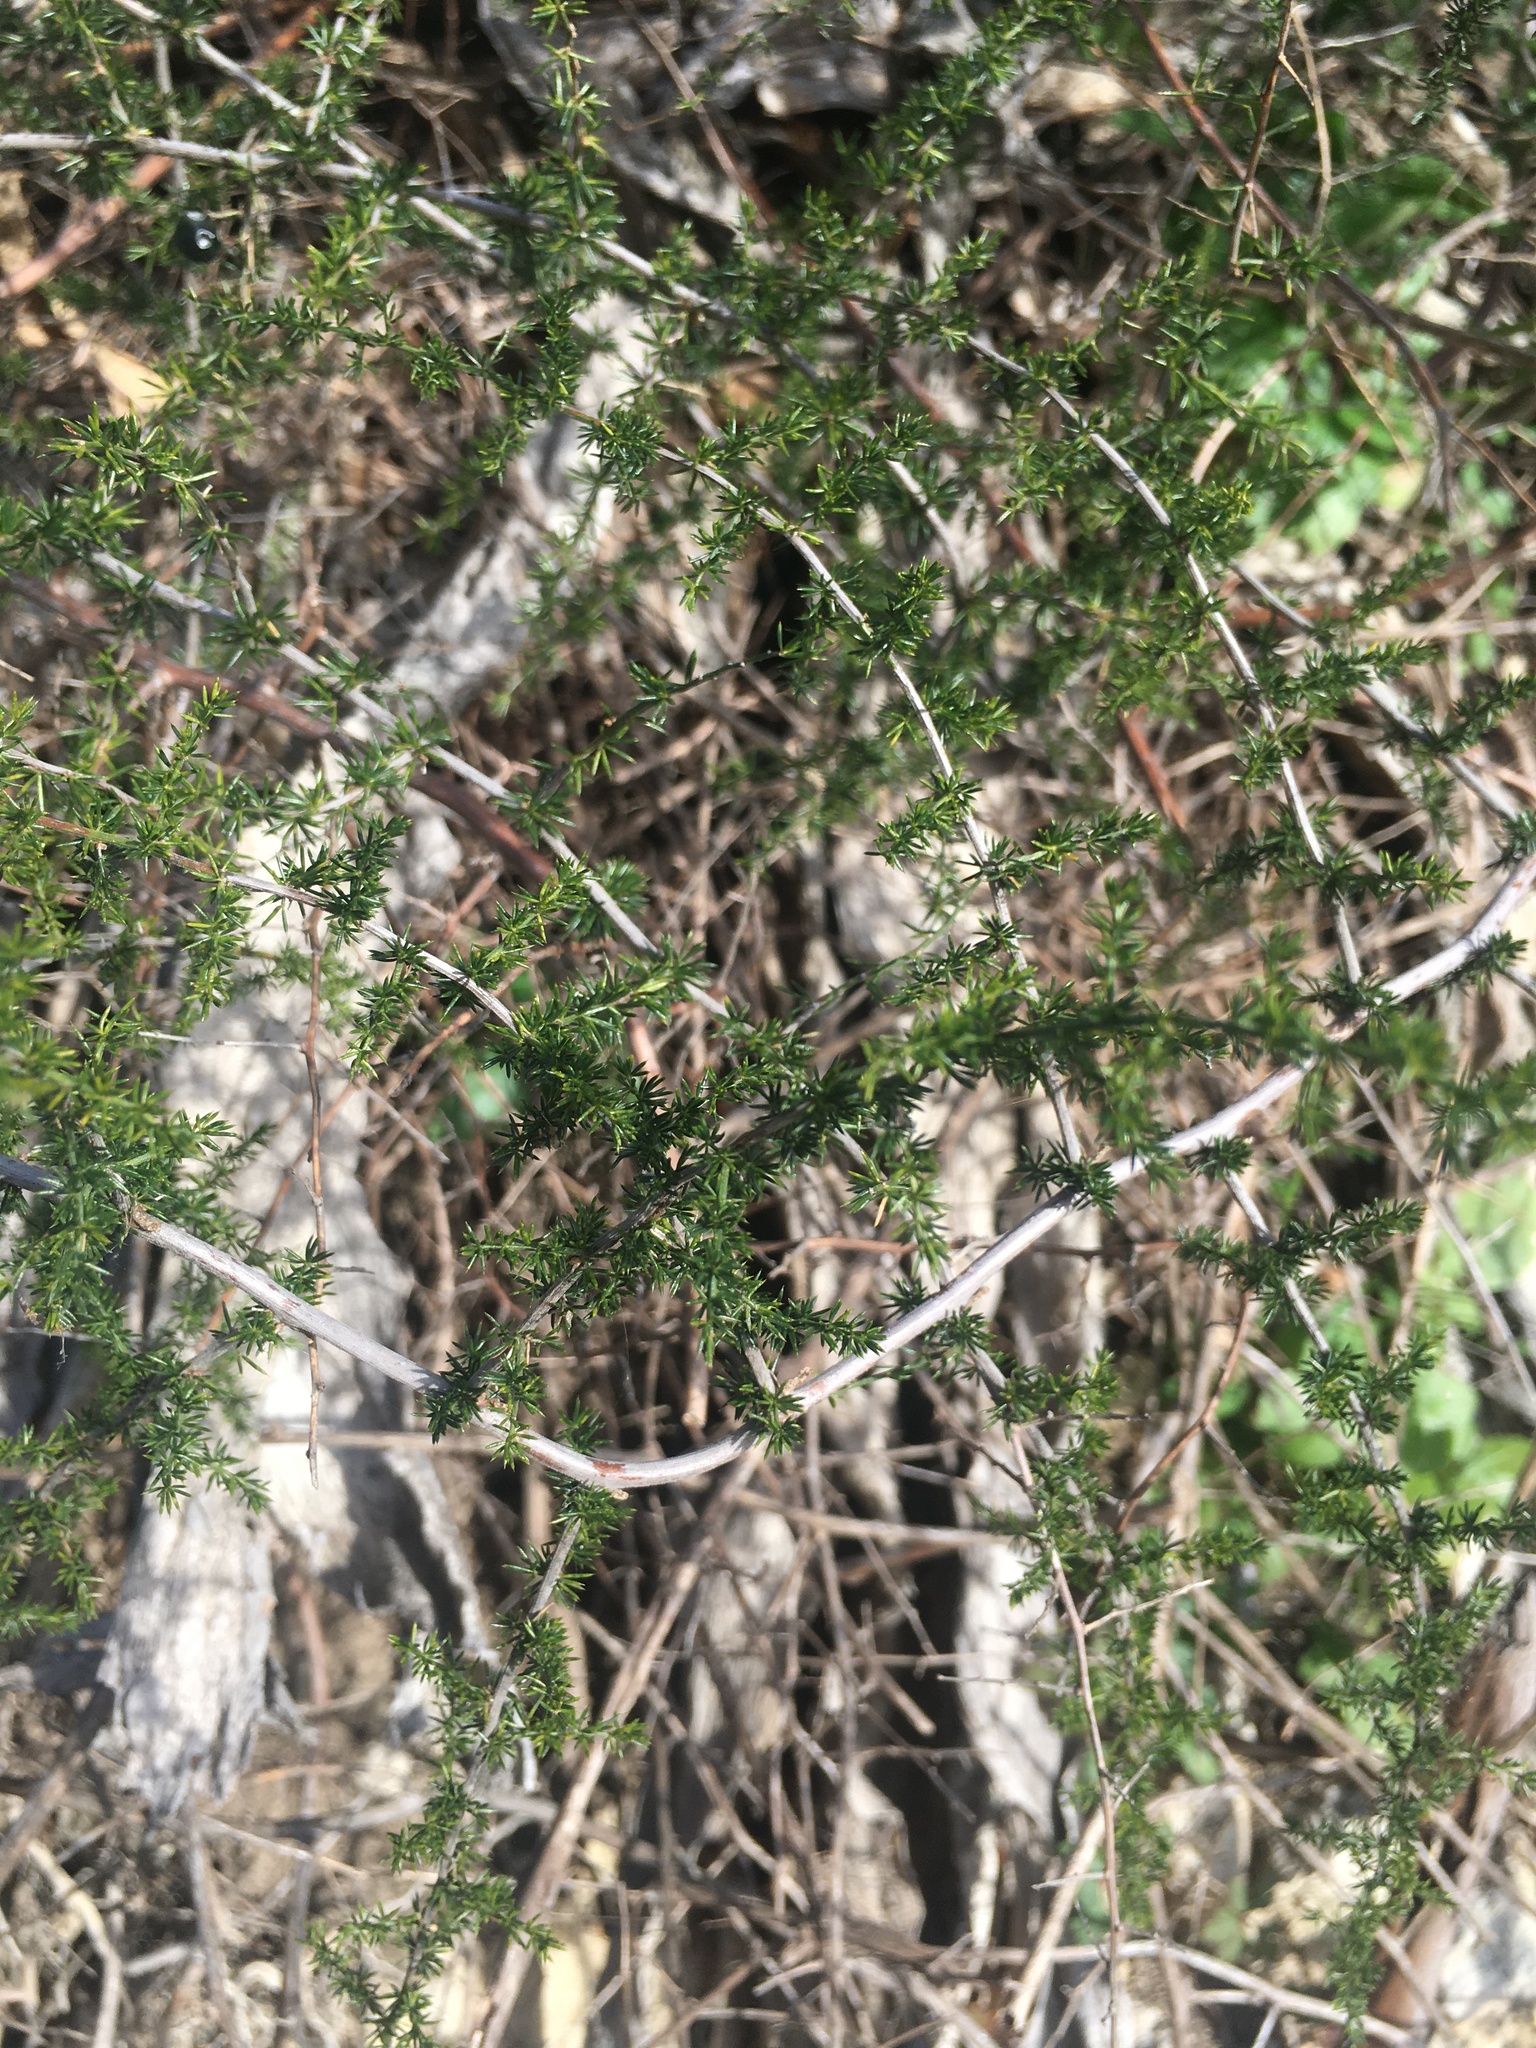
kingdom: Plantae
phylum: Tracheophyta
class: Liliopsida
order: Asparagales
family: Asparagaceae
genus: Asparagus
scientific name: Asparagus acutifolius
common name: Wild asparagus
